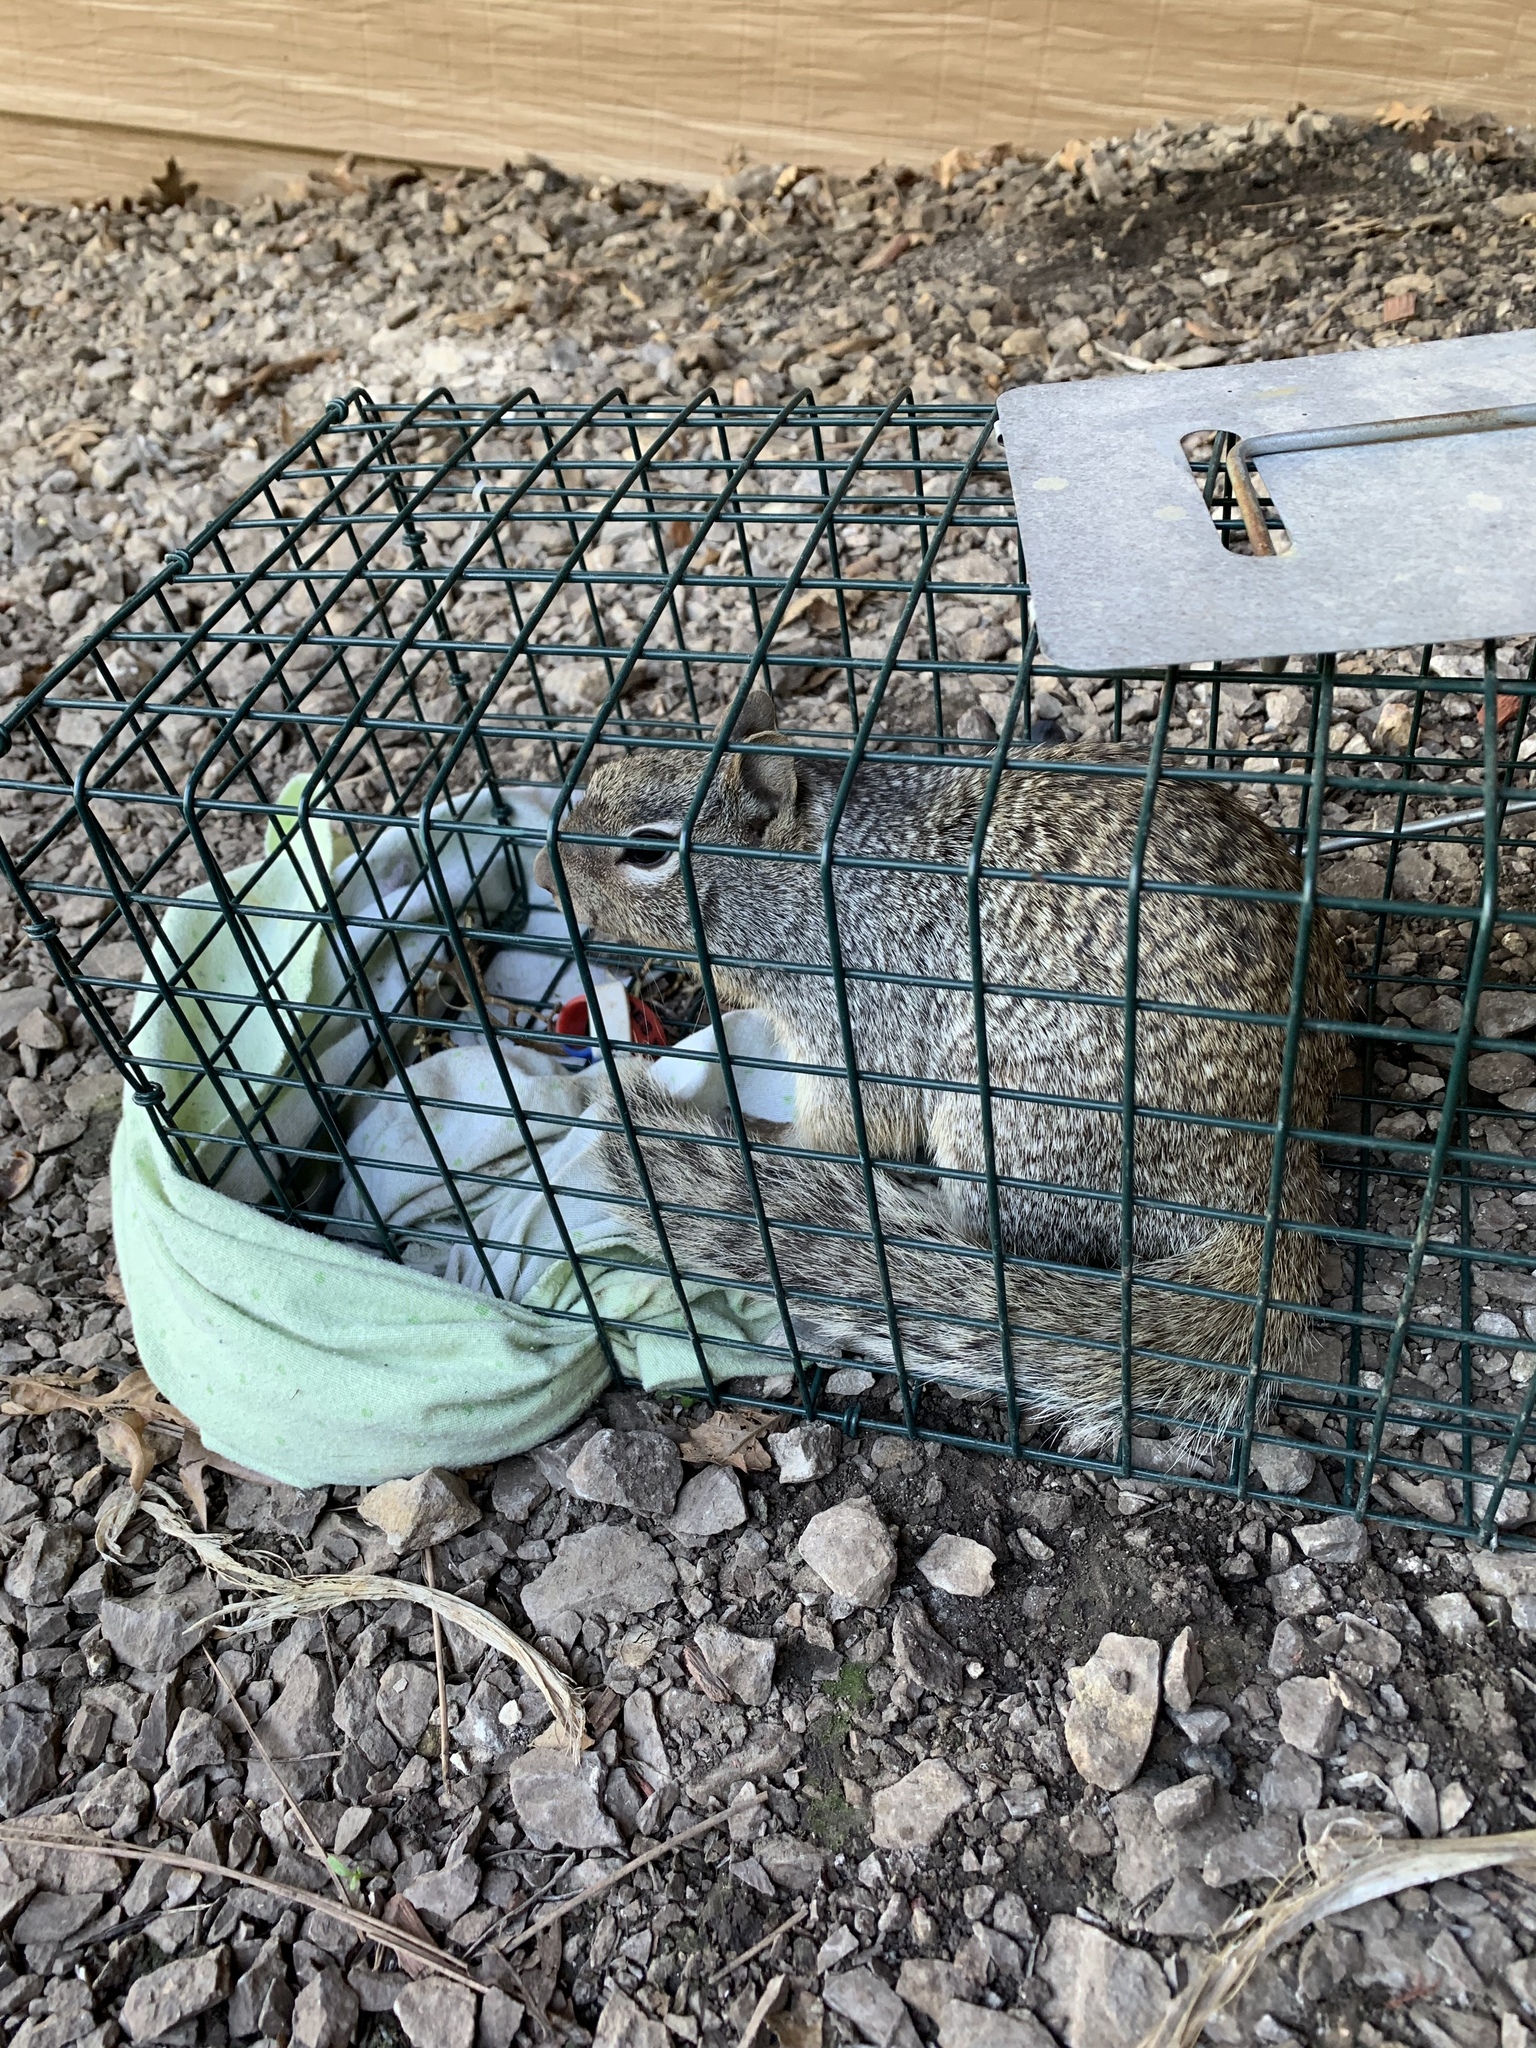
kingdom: Animalia
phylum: Chordata
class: Mammalia
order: Rodentia
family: Sciuridae
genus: Otospermophilus
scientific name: Otospermophilus variegatus
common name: Rock squirrel
